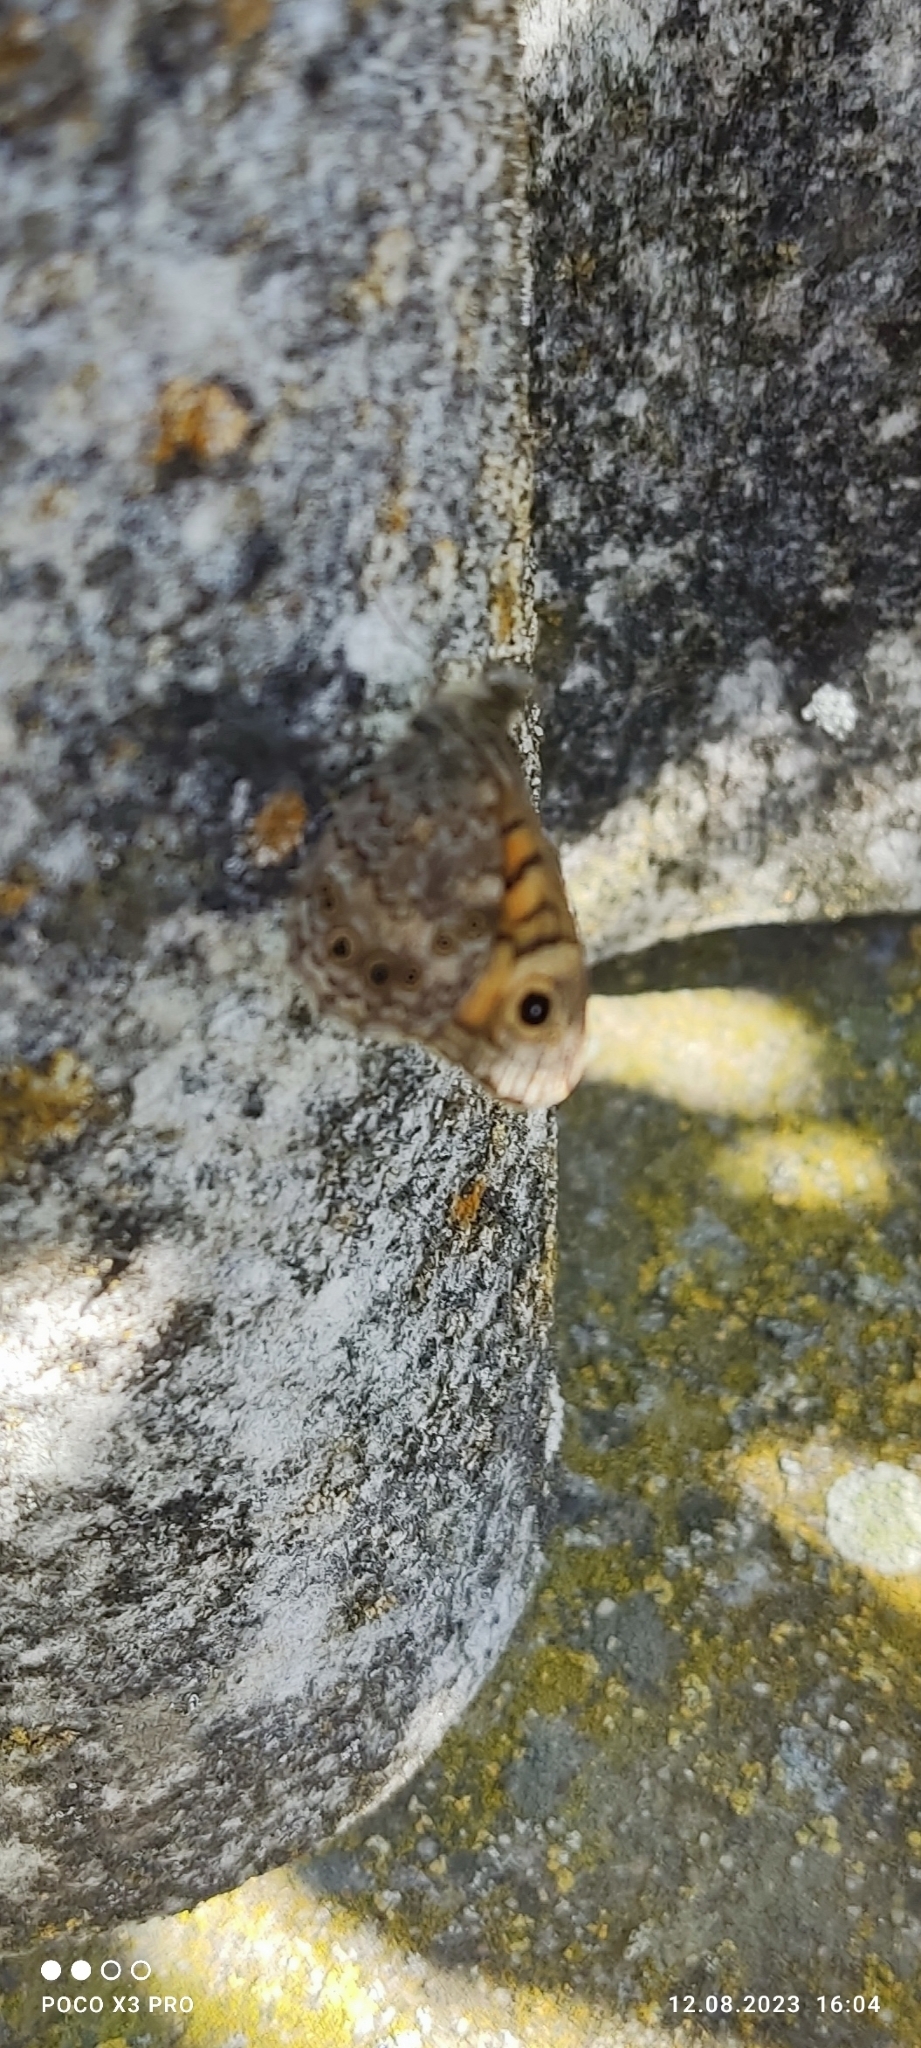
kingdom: Animalia
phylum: Arthropoda
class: Insecta
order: Lepidoptera
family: Nymphalidae
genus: Pararge
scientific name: Pararge Lasiommata megera
